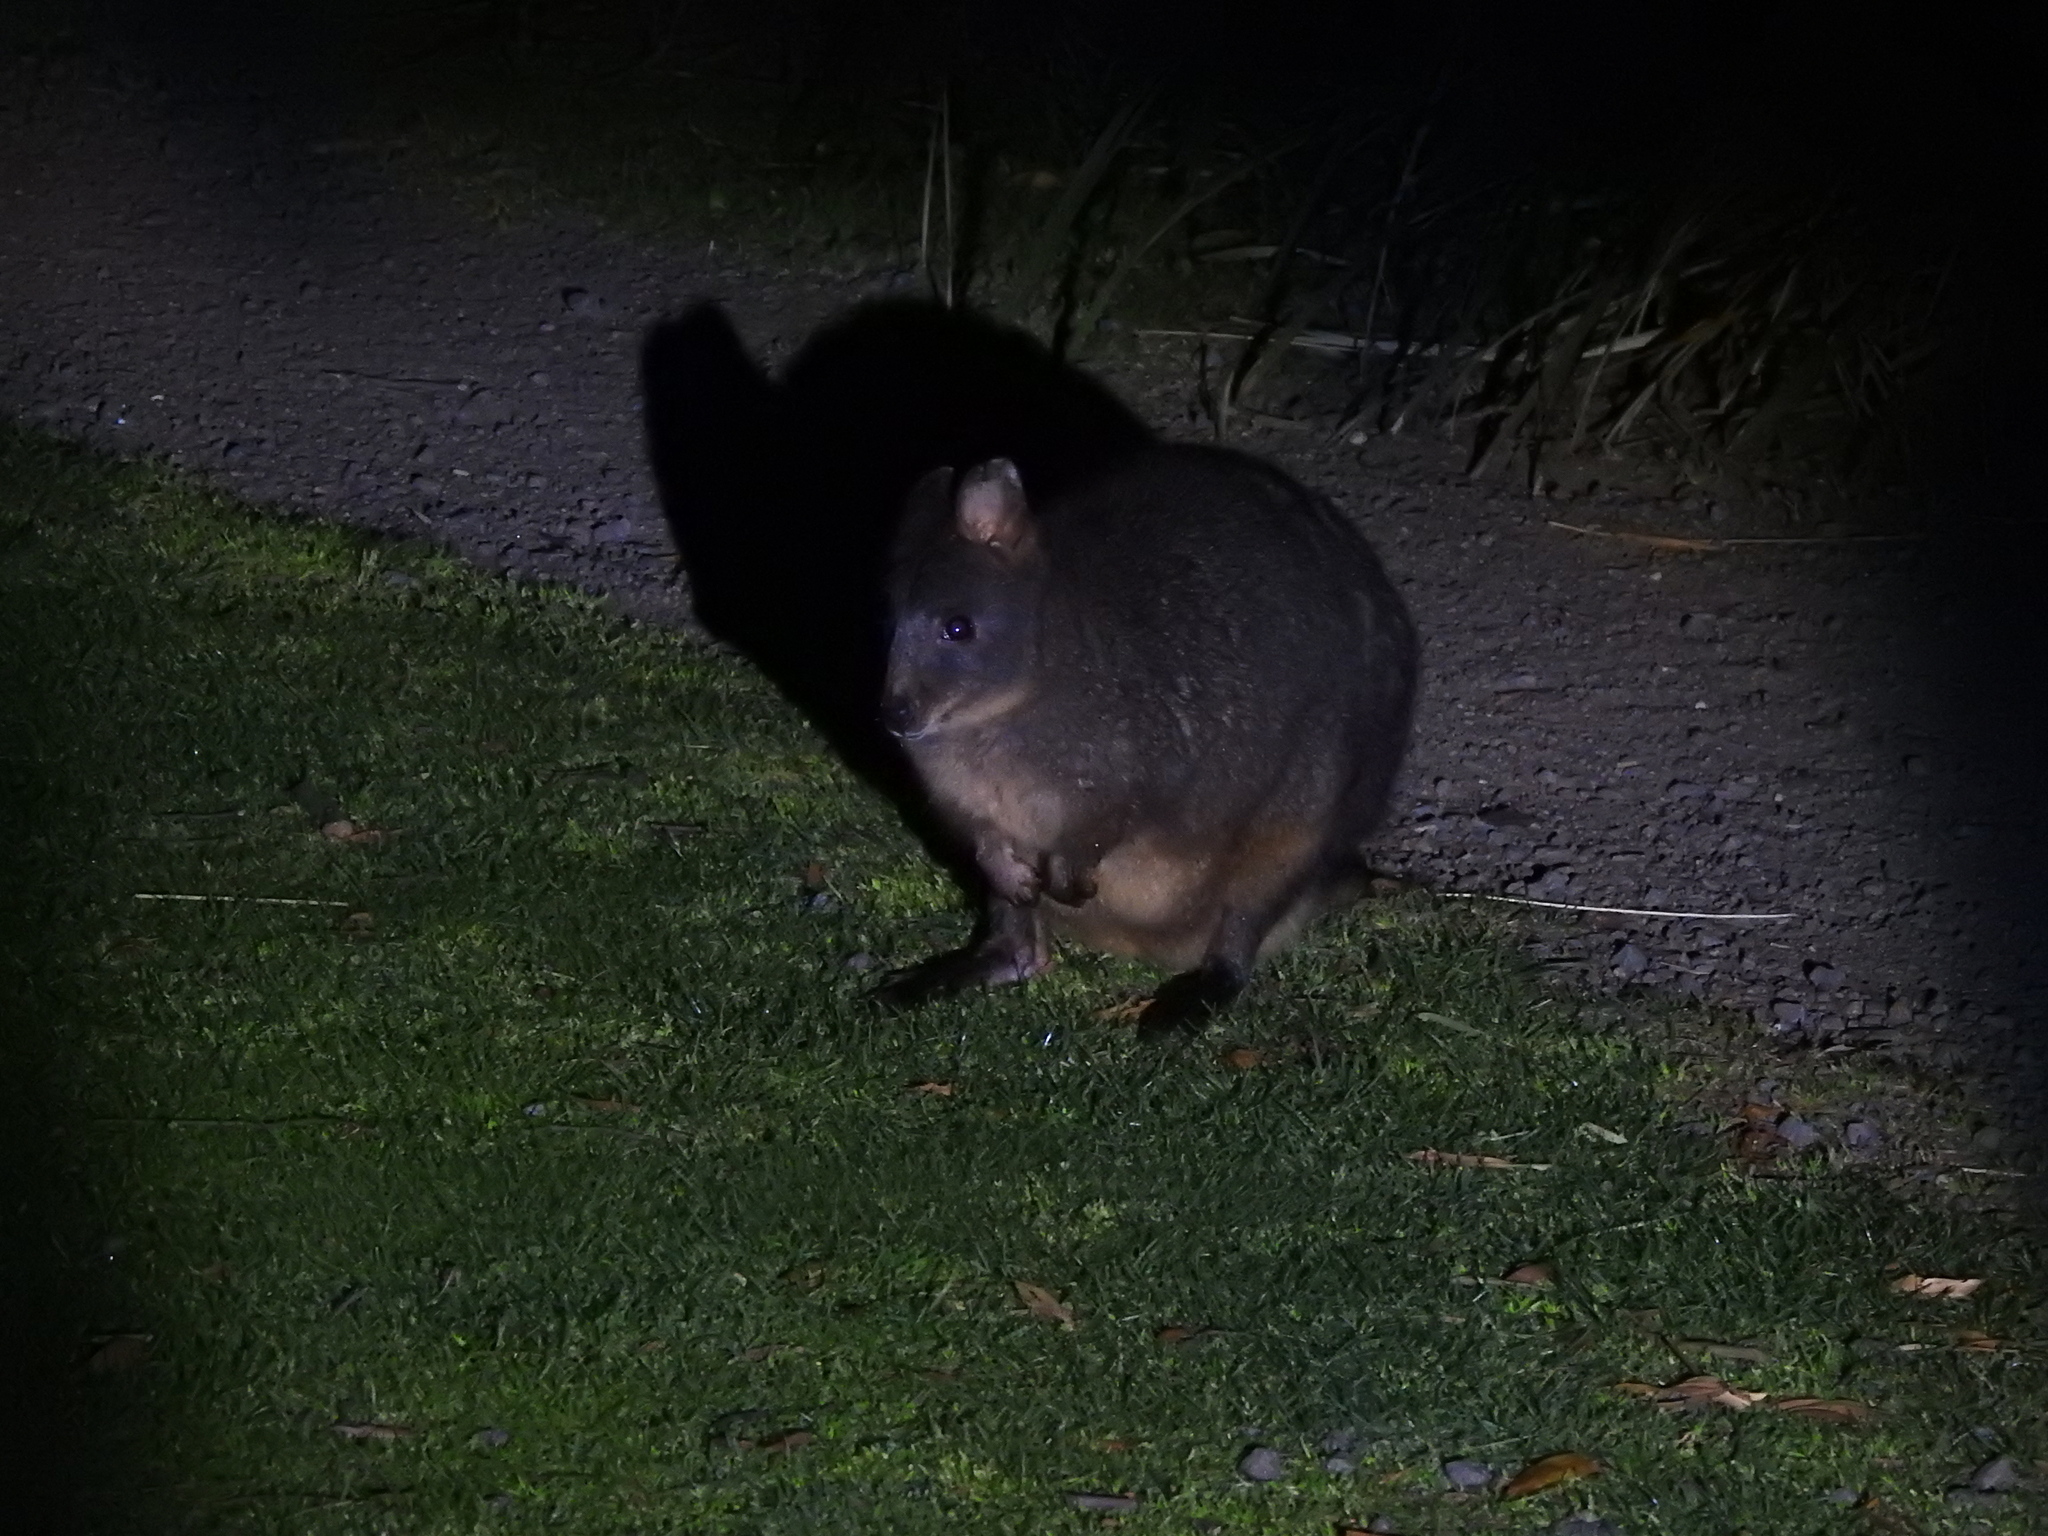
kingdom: Animalia
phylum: Chordata
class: Mammalia
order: Diprotodontia
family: Macropodidae
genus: Thylogale
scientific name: Thylogale billardierii
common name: Tasmanian pademelon
